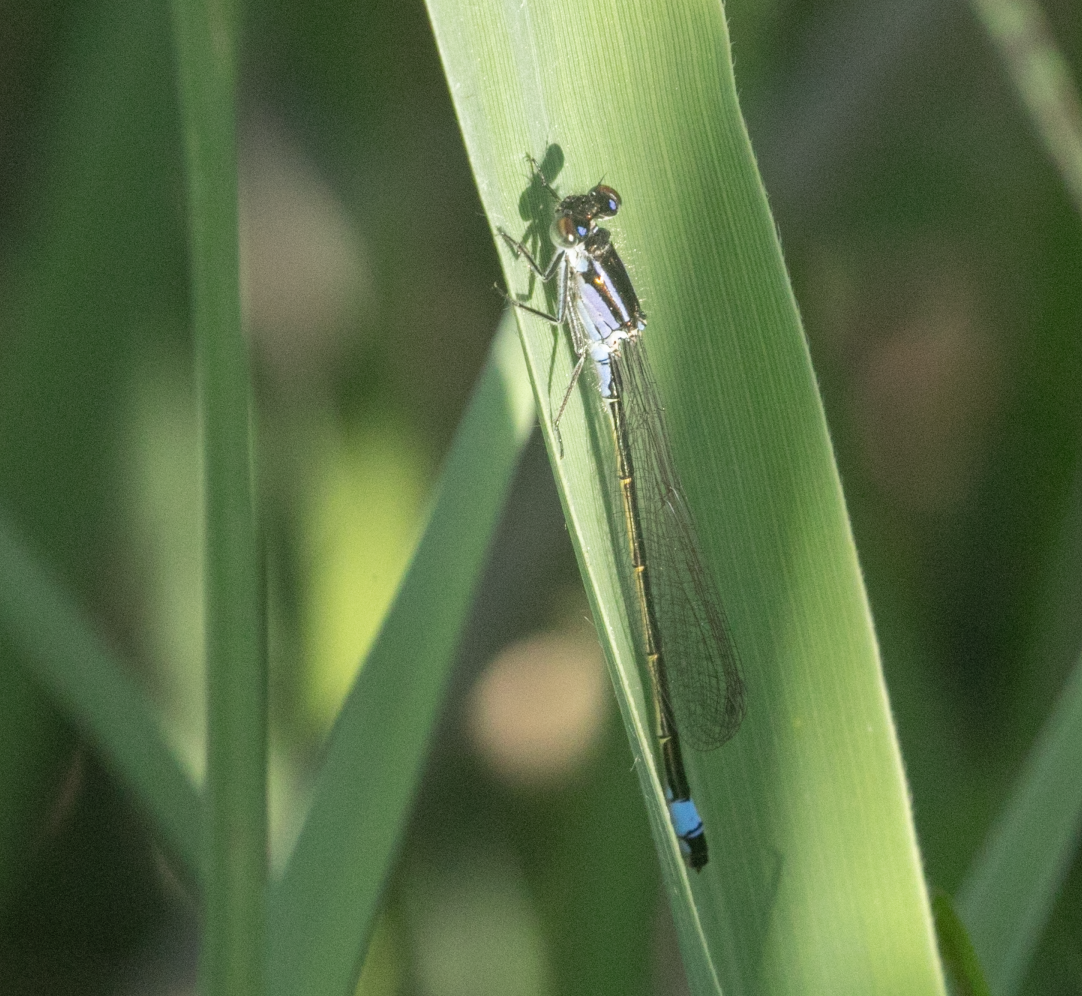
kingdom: Animalia
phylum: Arthropoda
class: Insecta
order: Odonata
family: Coenagrionidae
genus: Ischnura
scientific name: Ischnura elegans
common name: Blue-tailed damselfly
